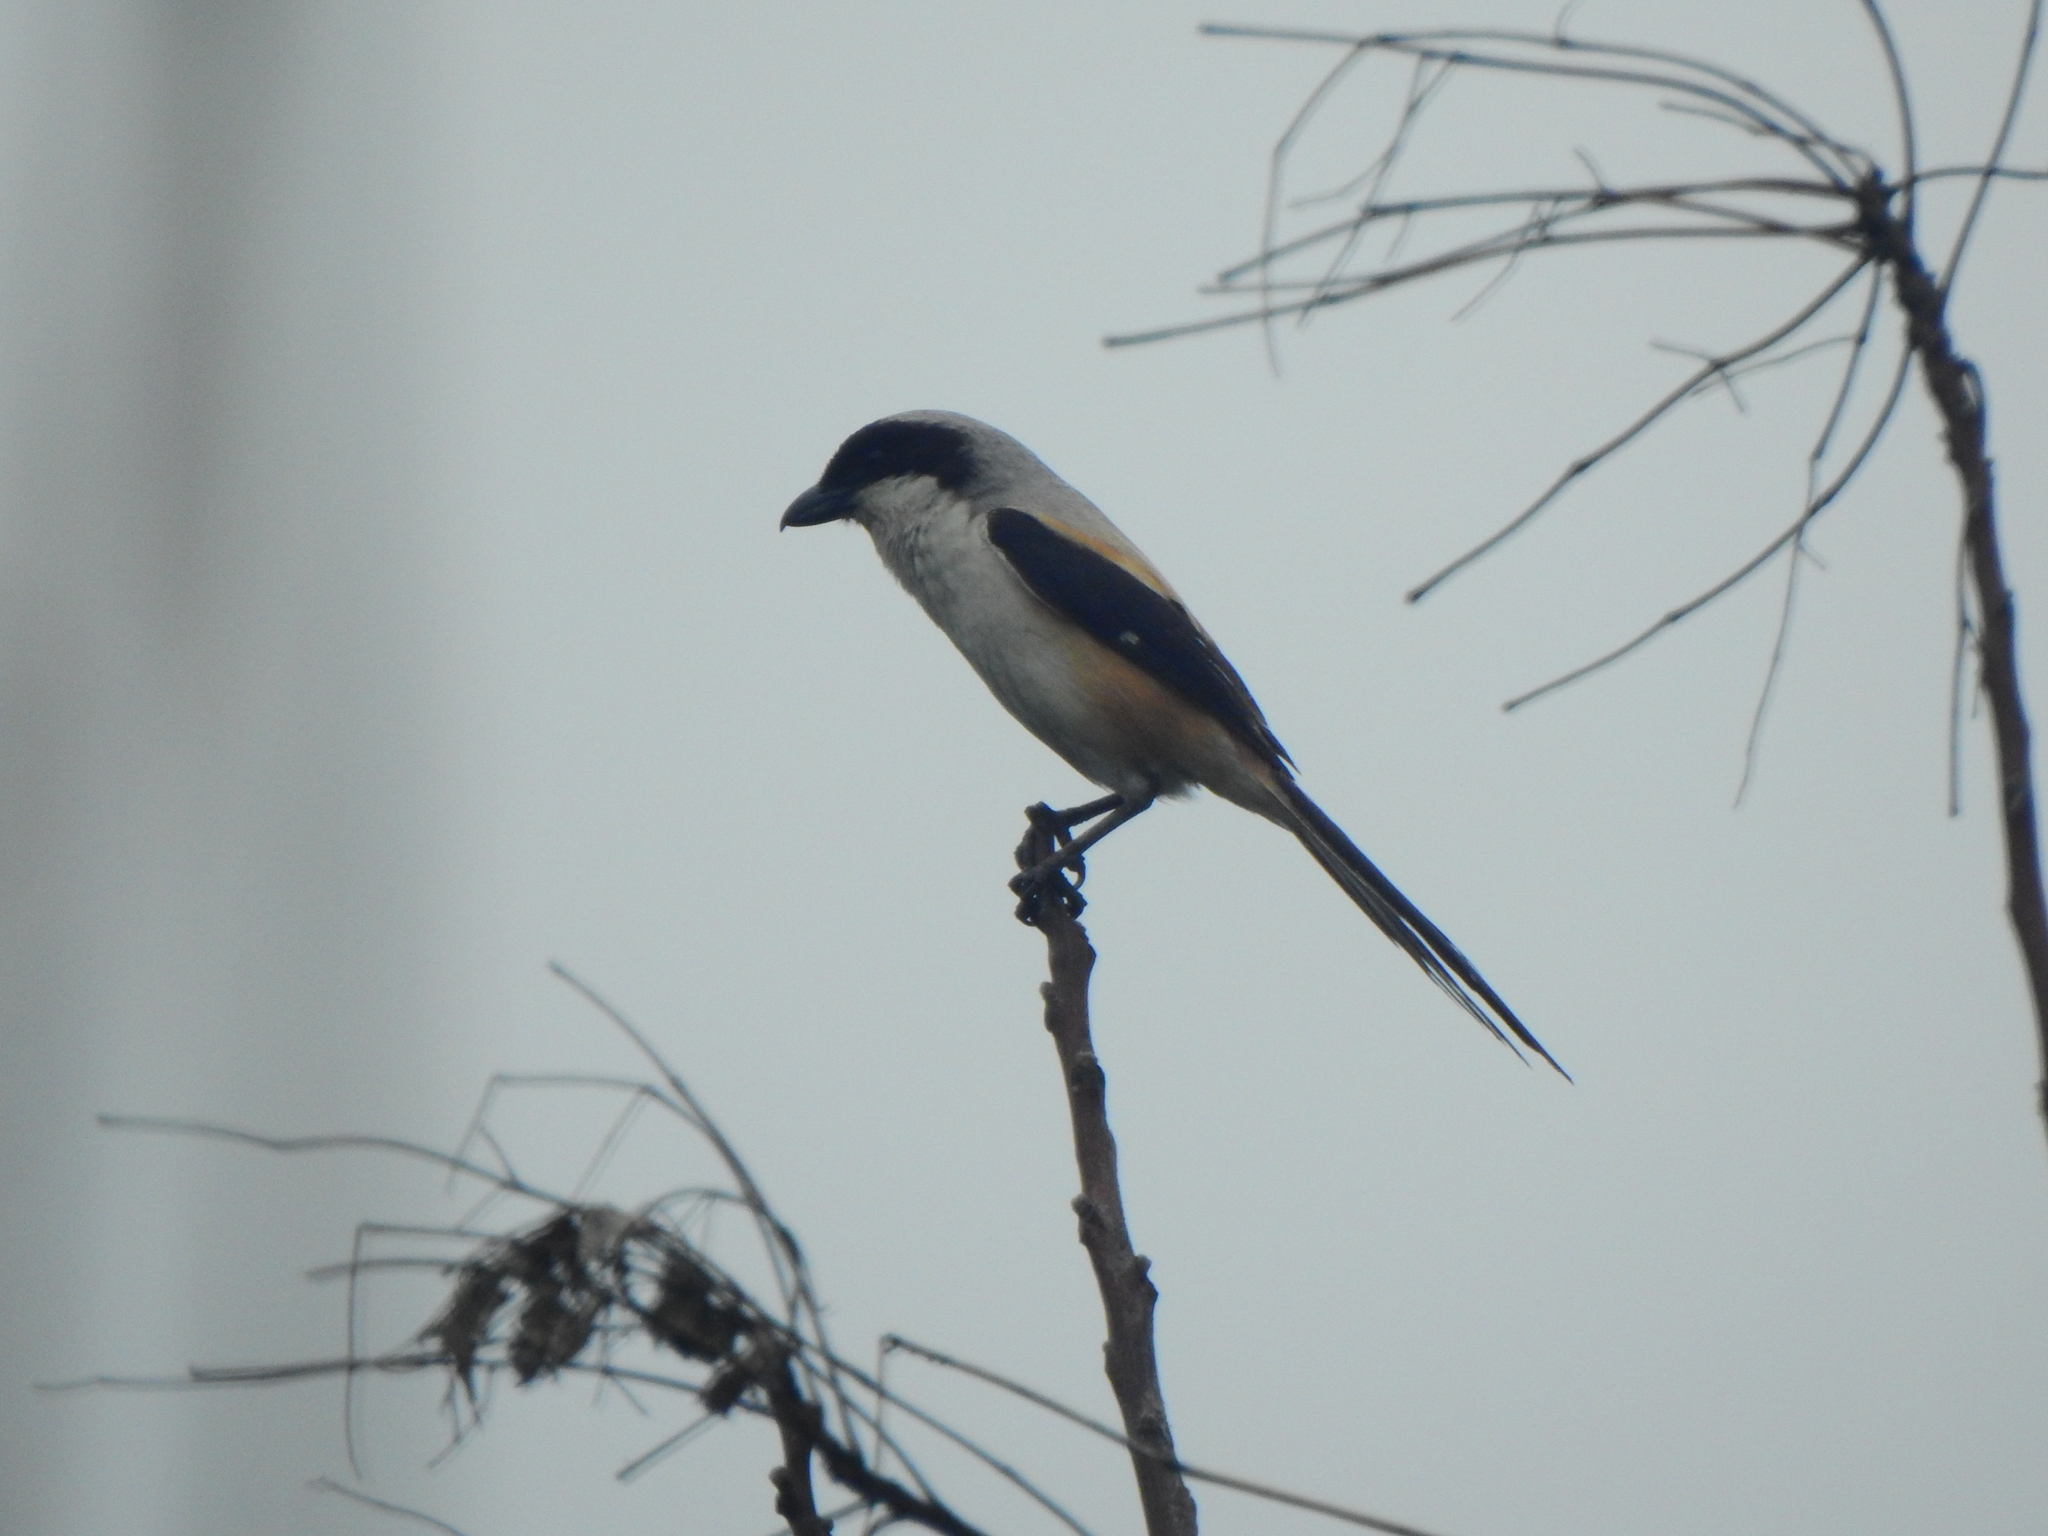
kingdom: Animalia
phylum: Chordata
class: Aves
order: Passeriformes
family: Laniidae
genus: Lanius
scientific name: Lanius schach
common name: Long-tailed shrike
